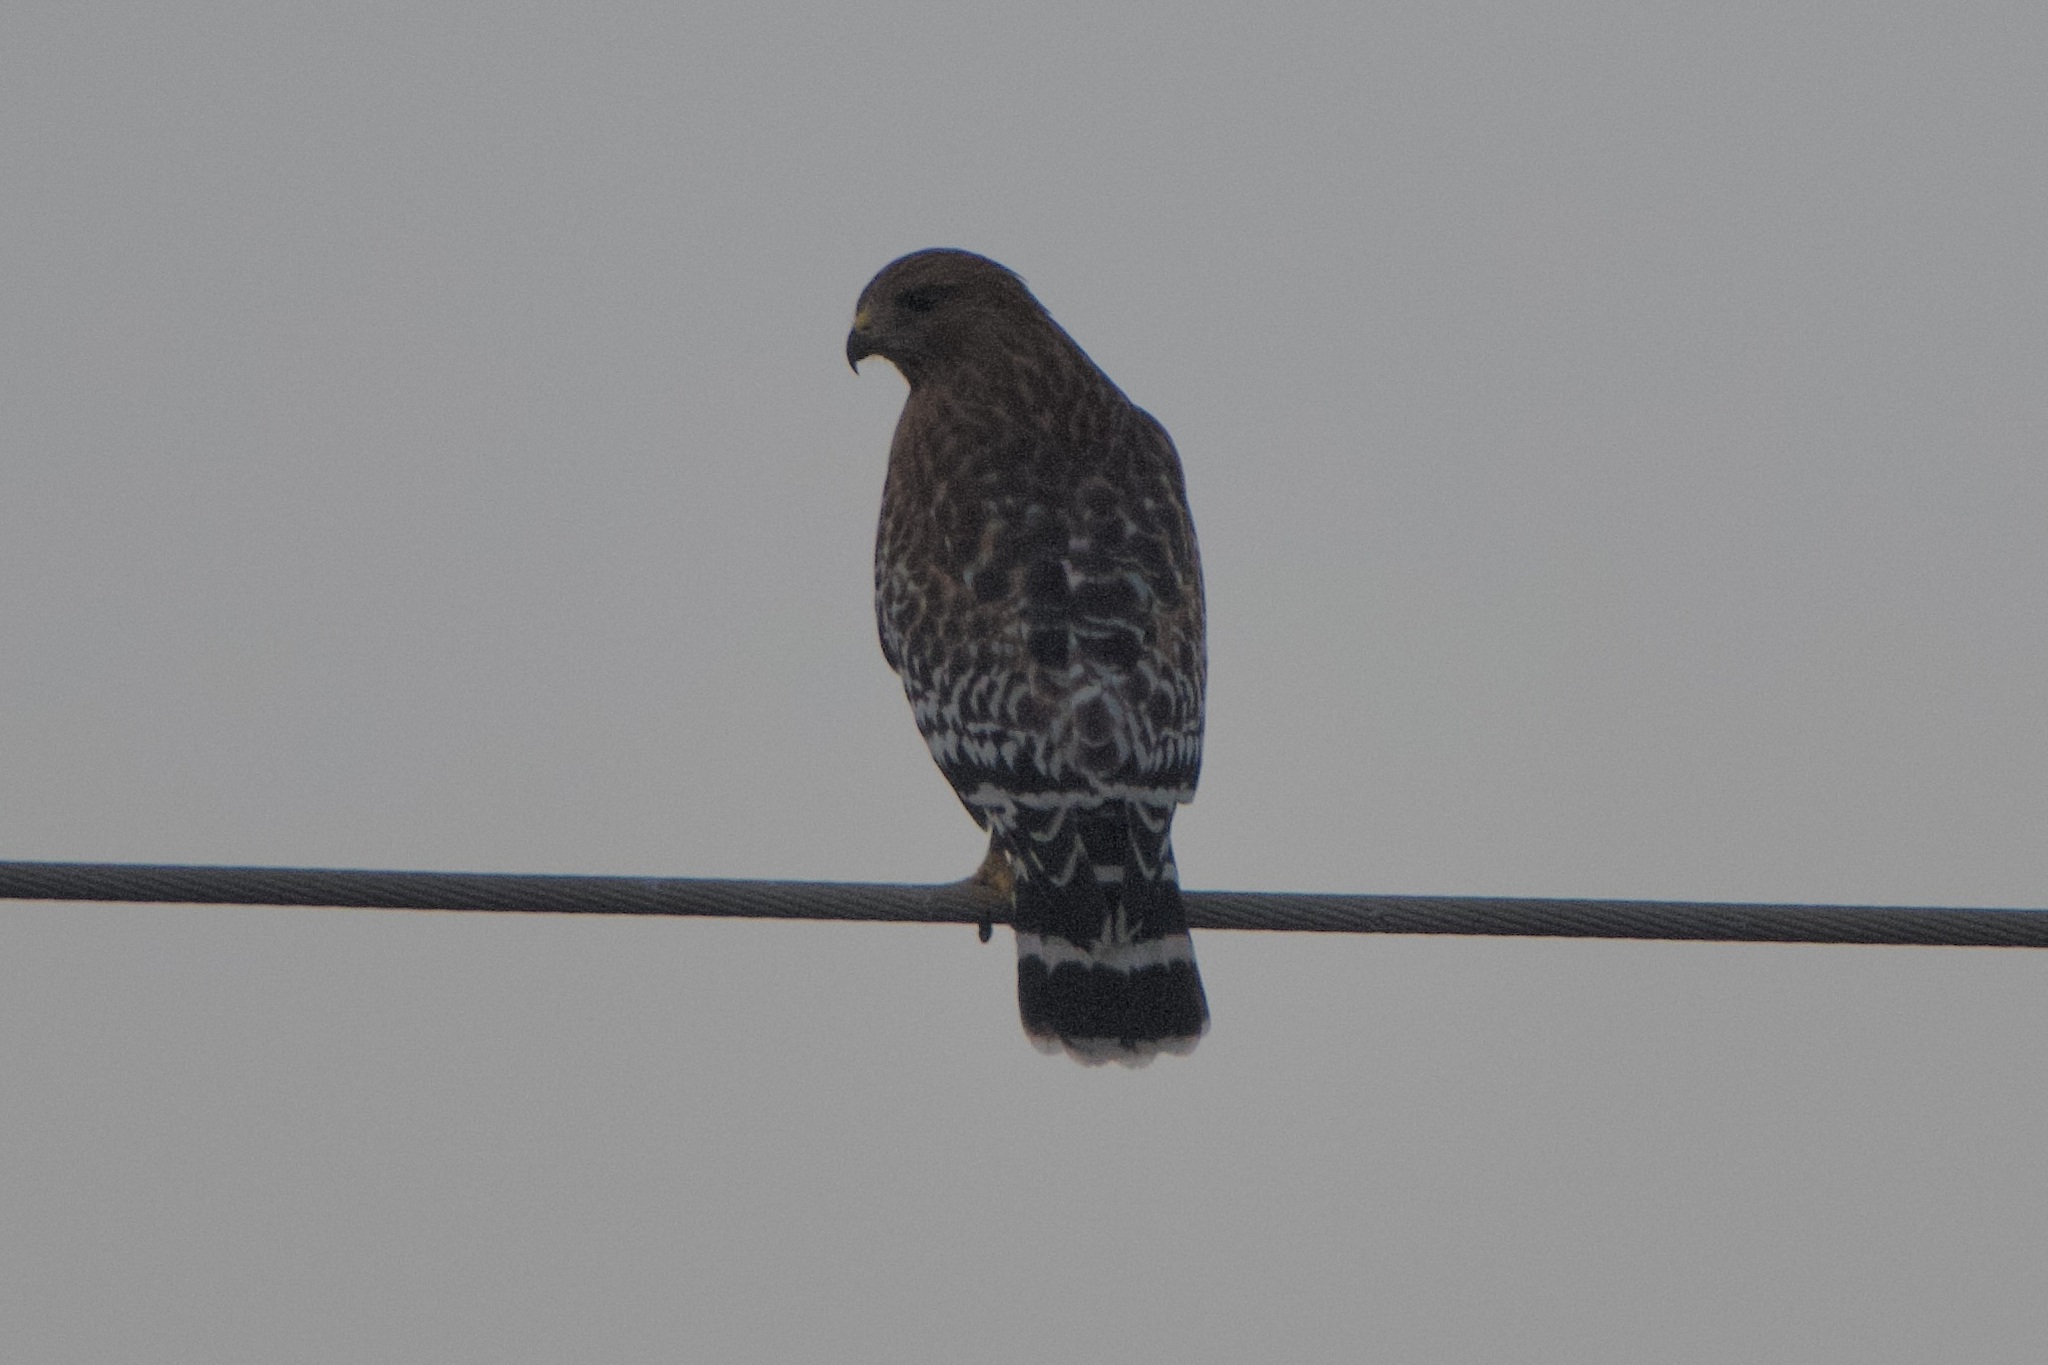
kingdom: Animalia
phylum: Chordata
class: Aves
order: Accipitriformes
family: Accipitridae
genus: Buteo
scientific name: Buteo lineatus
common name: Red-shouldered hawk
